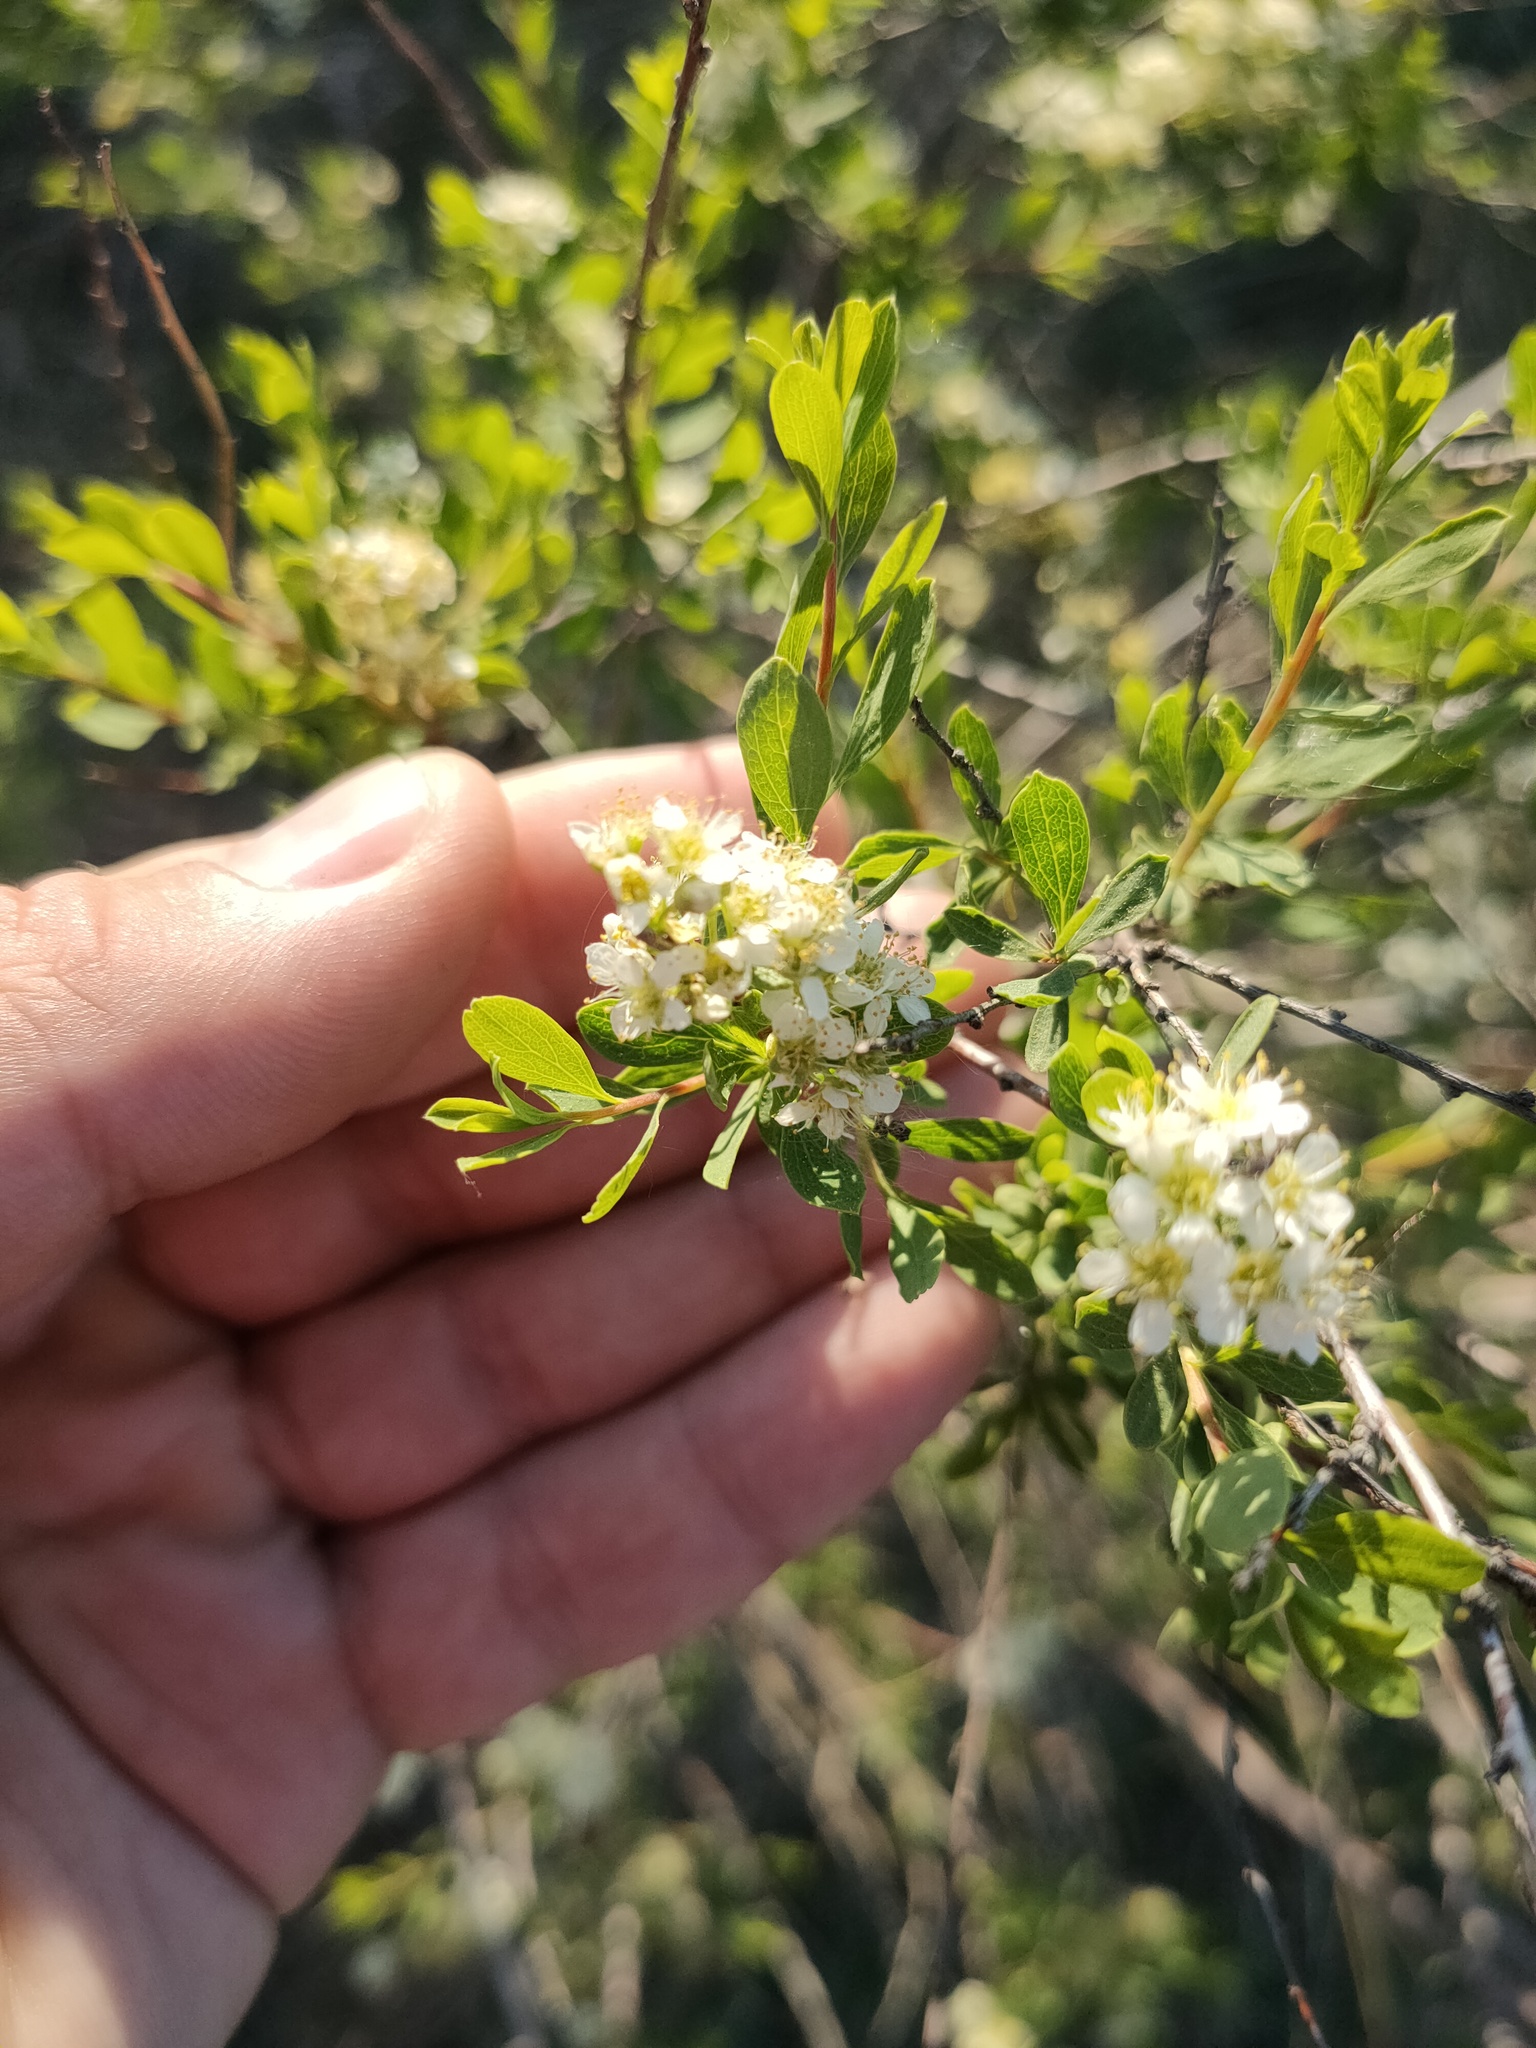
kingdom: Plantae
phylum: Tracheophyta
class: Magnoliopsida
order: Rosales
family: Rosaceae
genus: Spiraea
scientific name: Spiraea hypericifolia
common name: Iberian spirea
